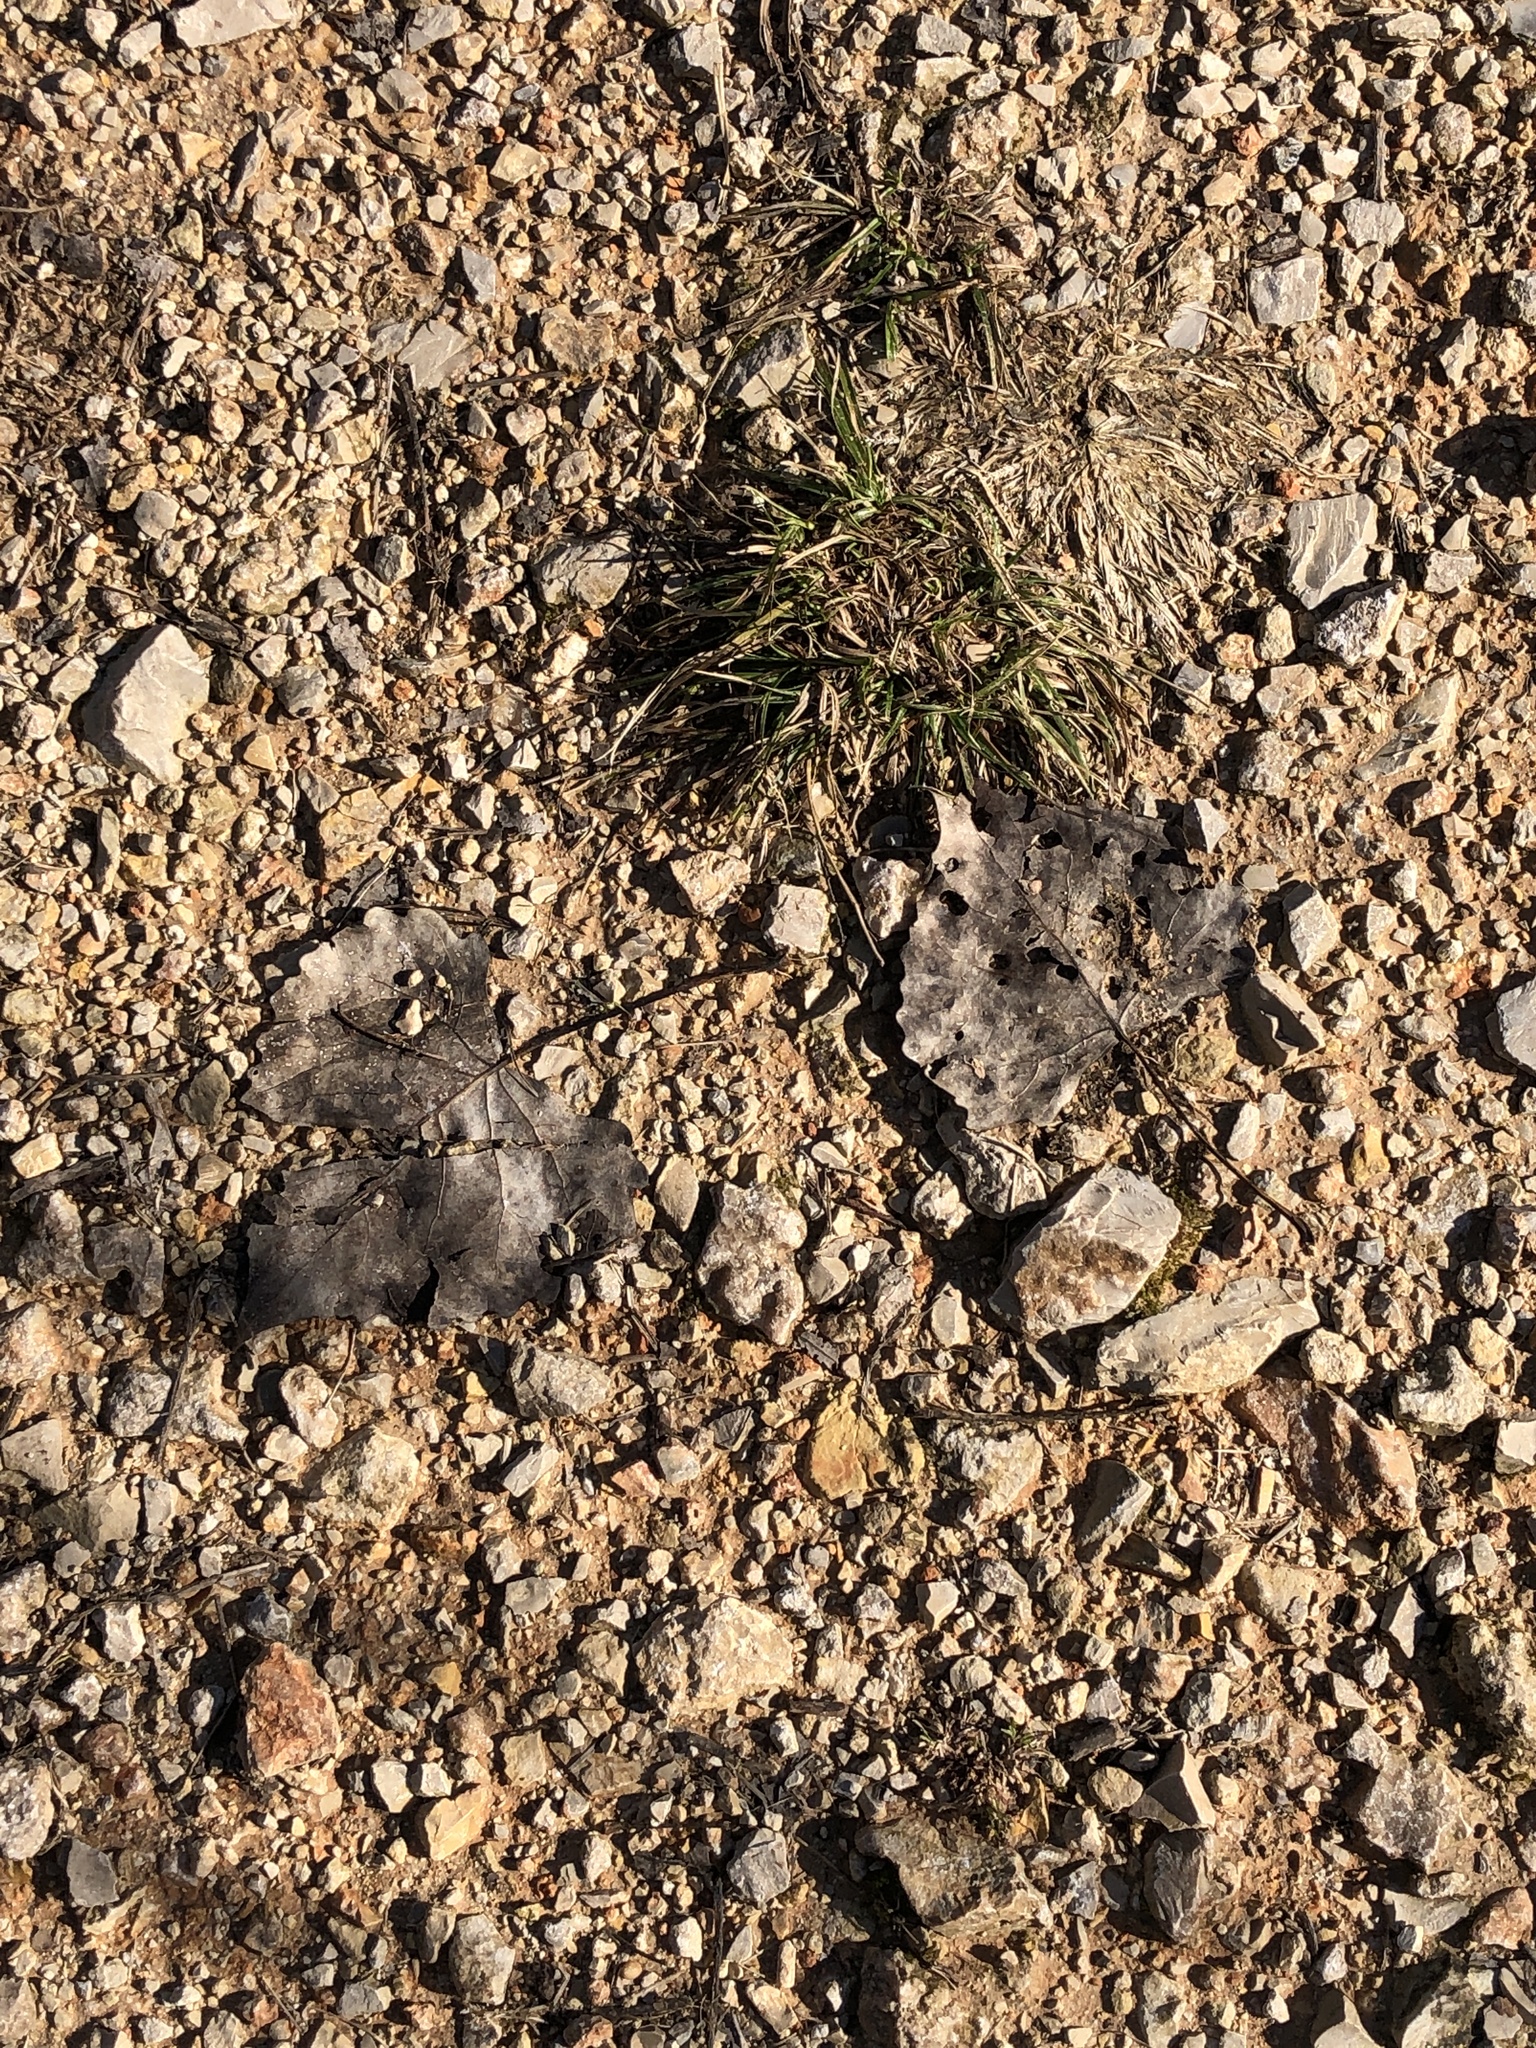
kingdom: Plantae
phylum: Tracheophyta
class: Magnoliopsida
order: Malpighiales
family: Salicaceae
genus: Populus
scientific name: Populus deltoides
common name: Eastern cottonwood
